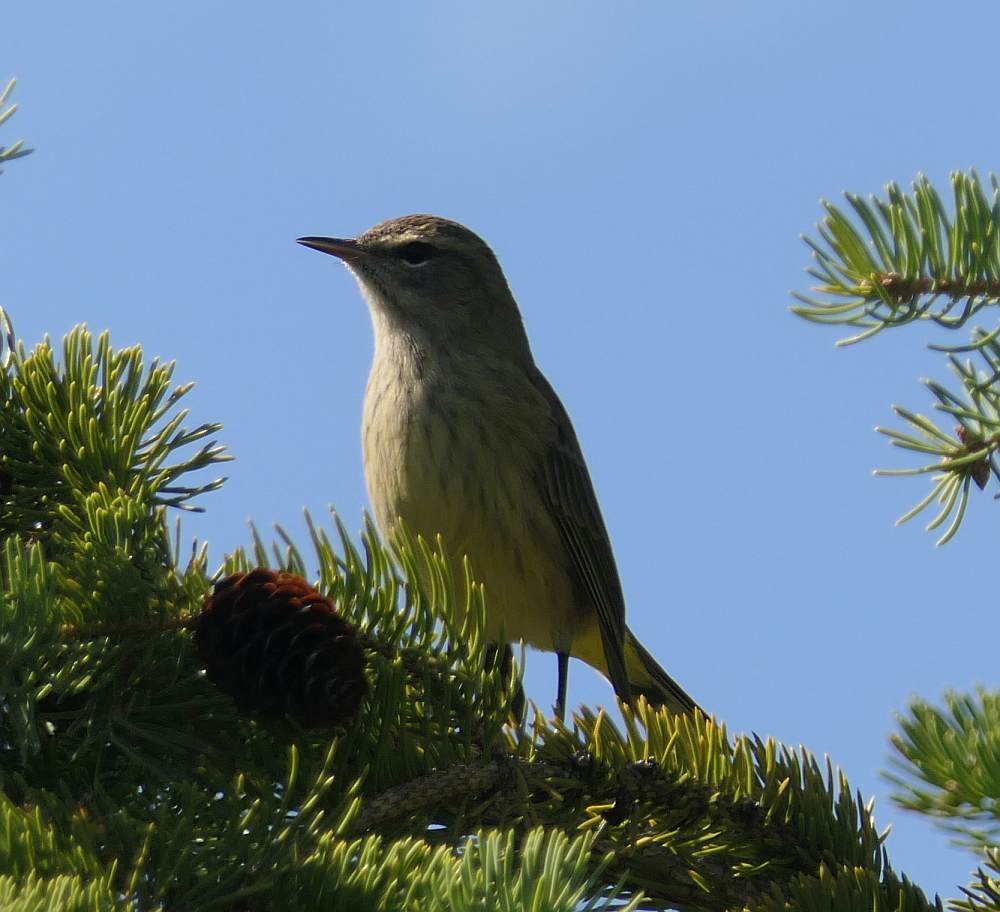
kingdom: Animalia
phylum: Chordata
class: Aves
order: Passeriformes
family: Parulidae
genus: Setophaga
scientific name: Setophaga palmarum
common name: Palm warbler
